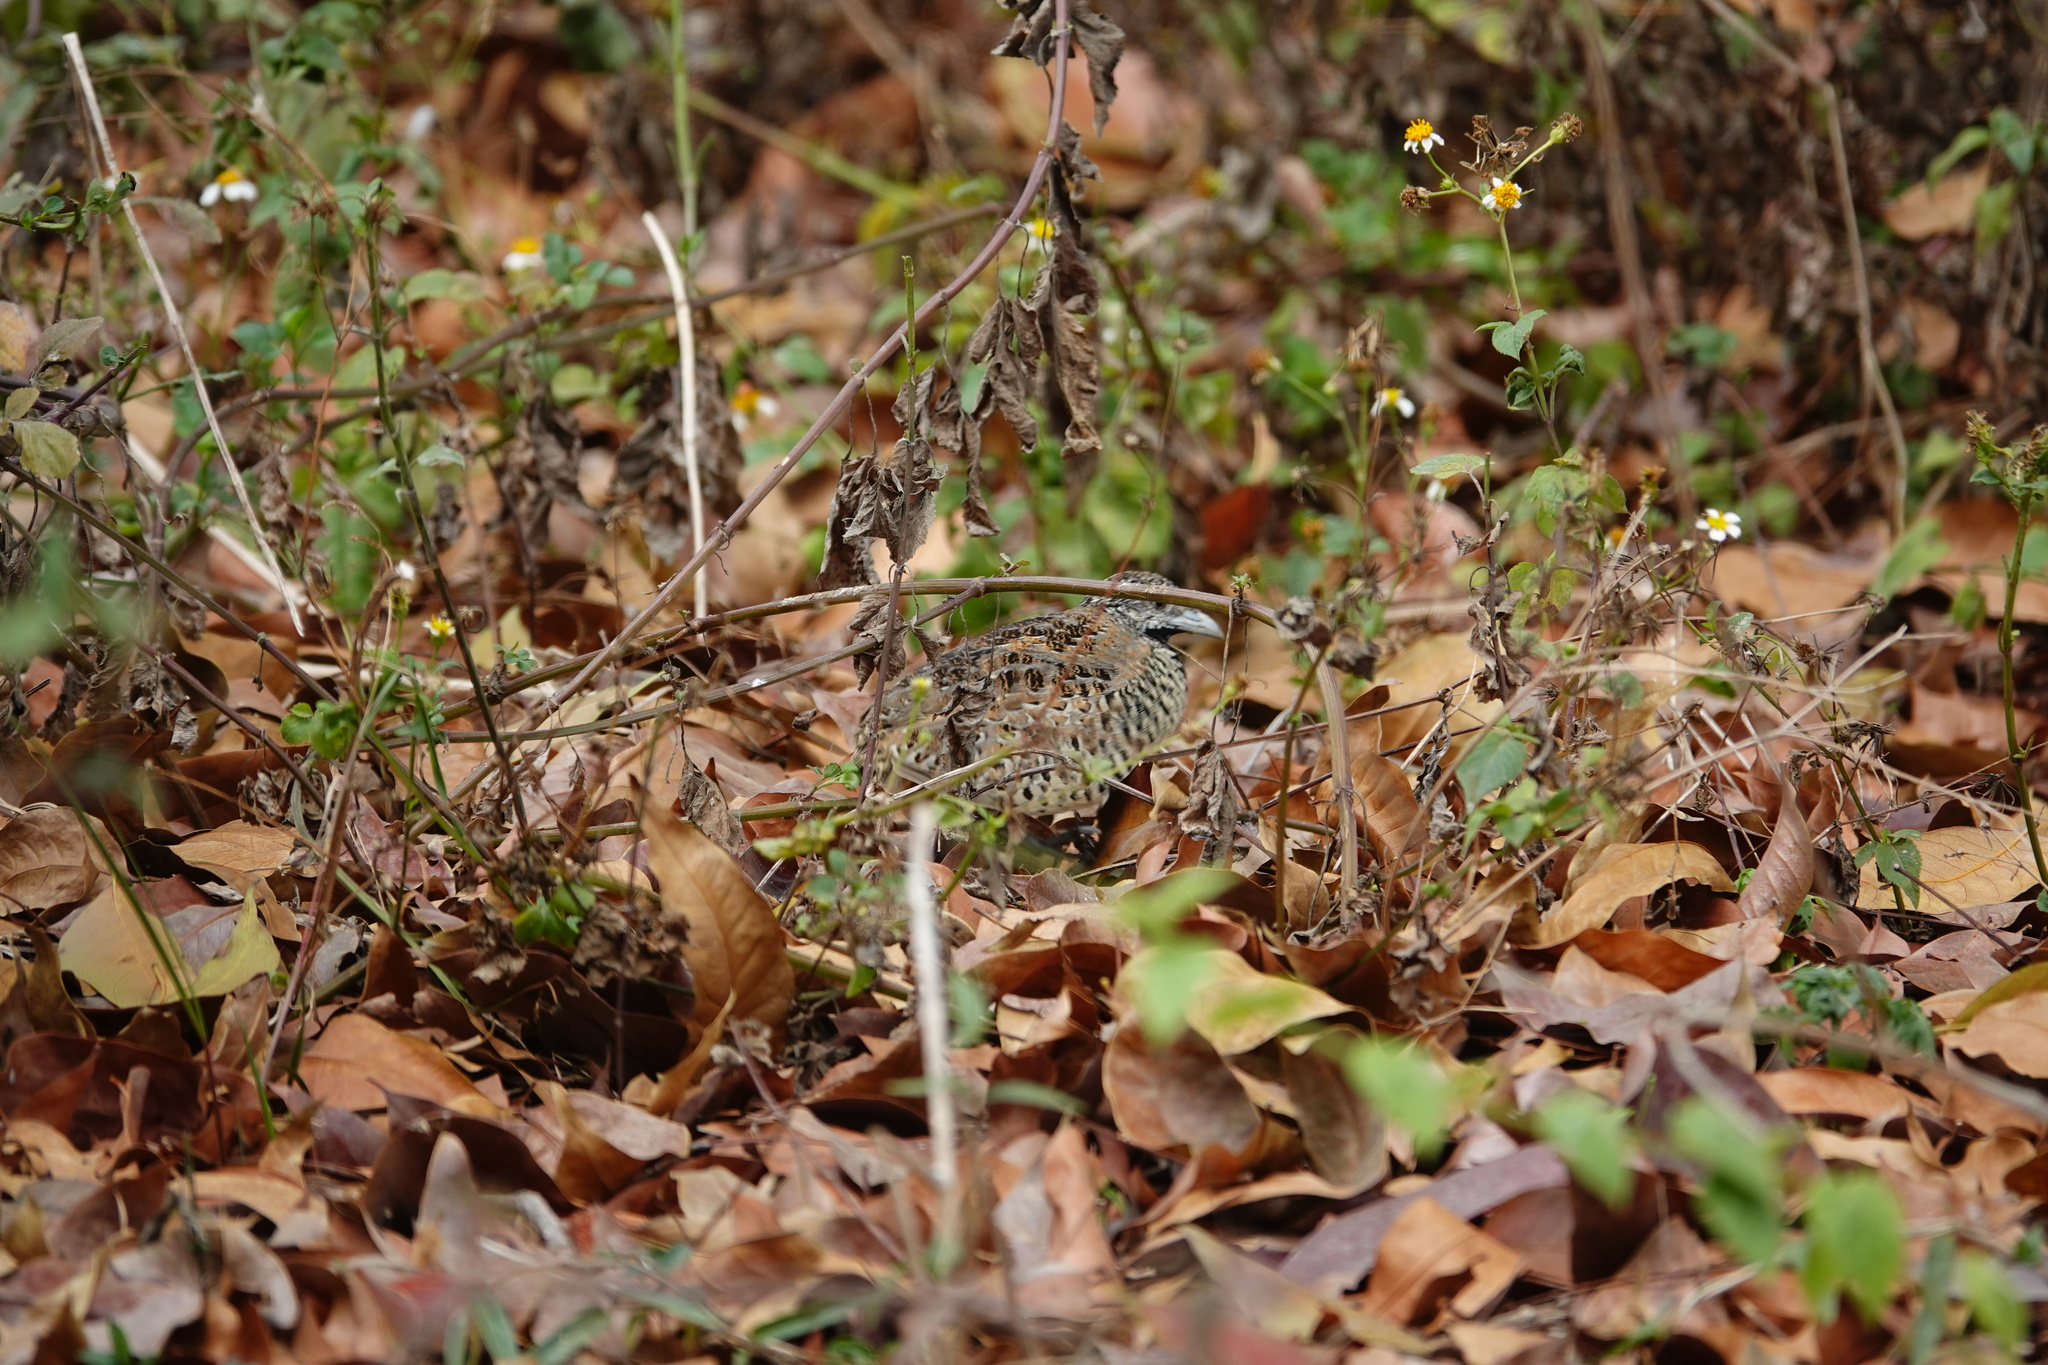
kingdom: Animalia
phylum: Chordata
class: Aves
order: Charadriiformes
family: Turnicidae
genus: Turnix
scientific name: Turnix suscitator
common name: Barred buttonquail
